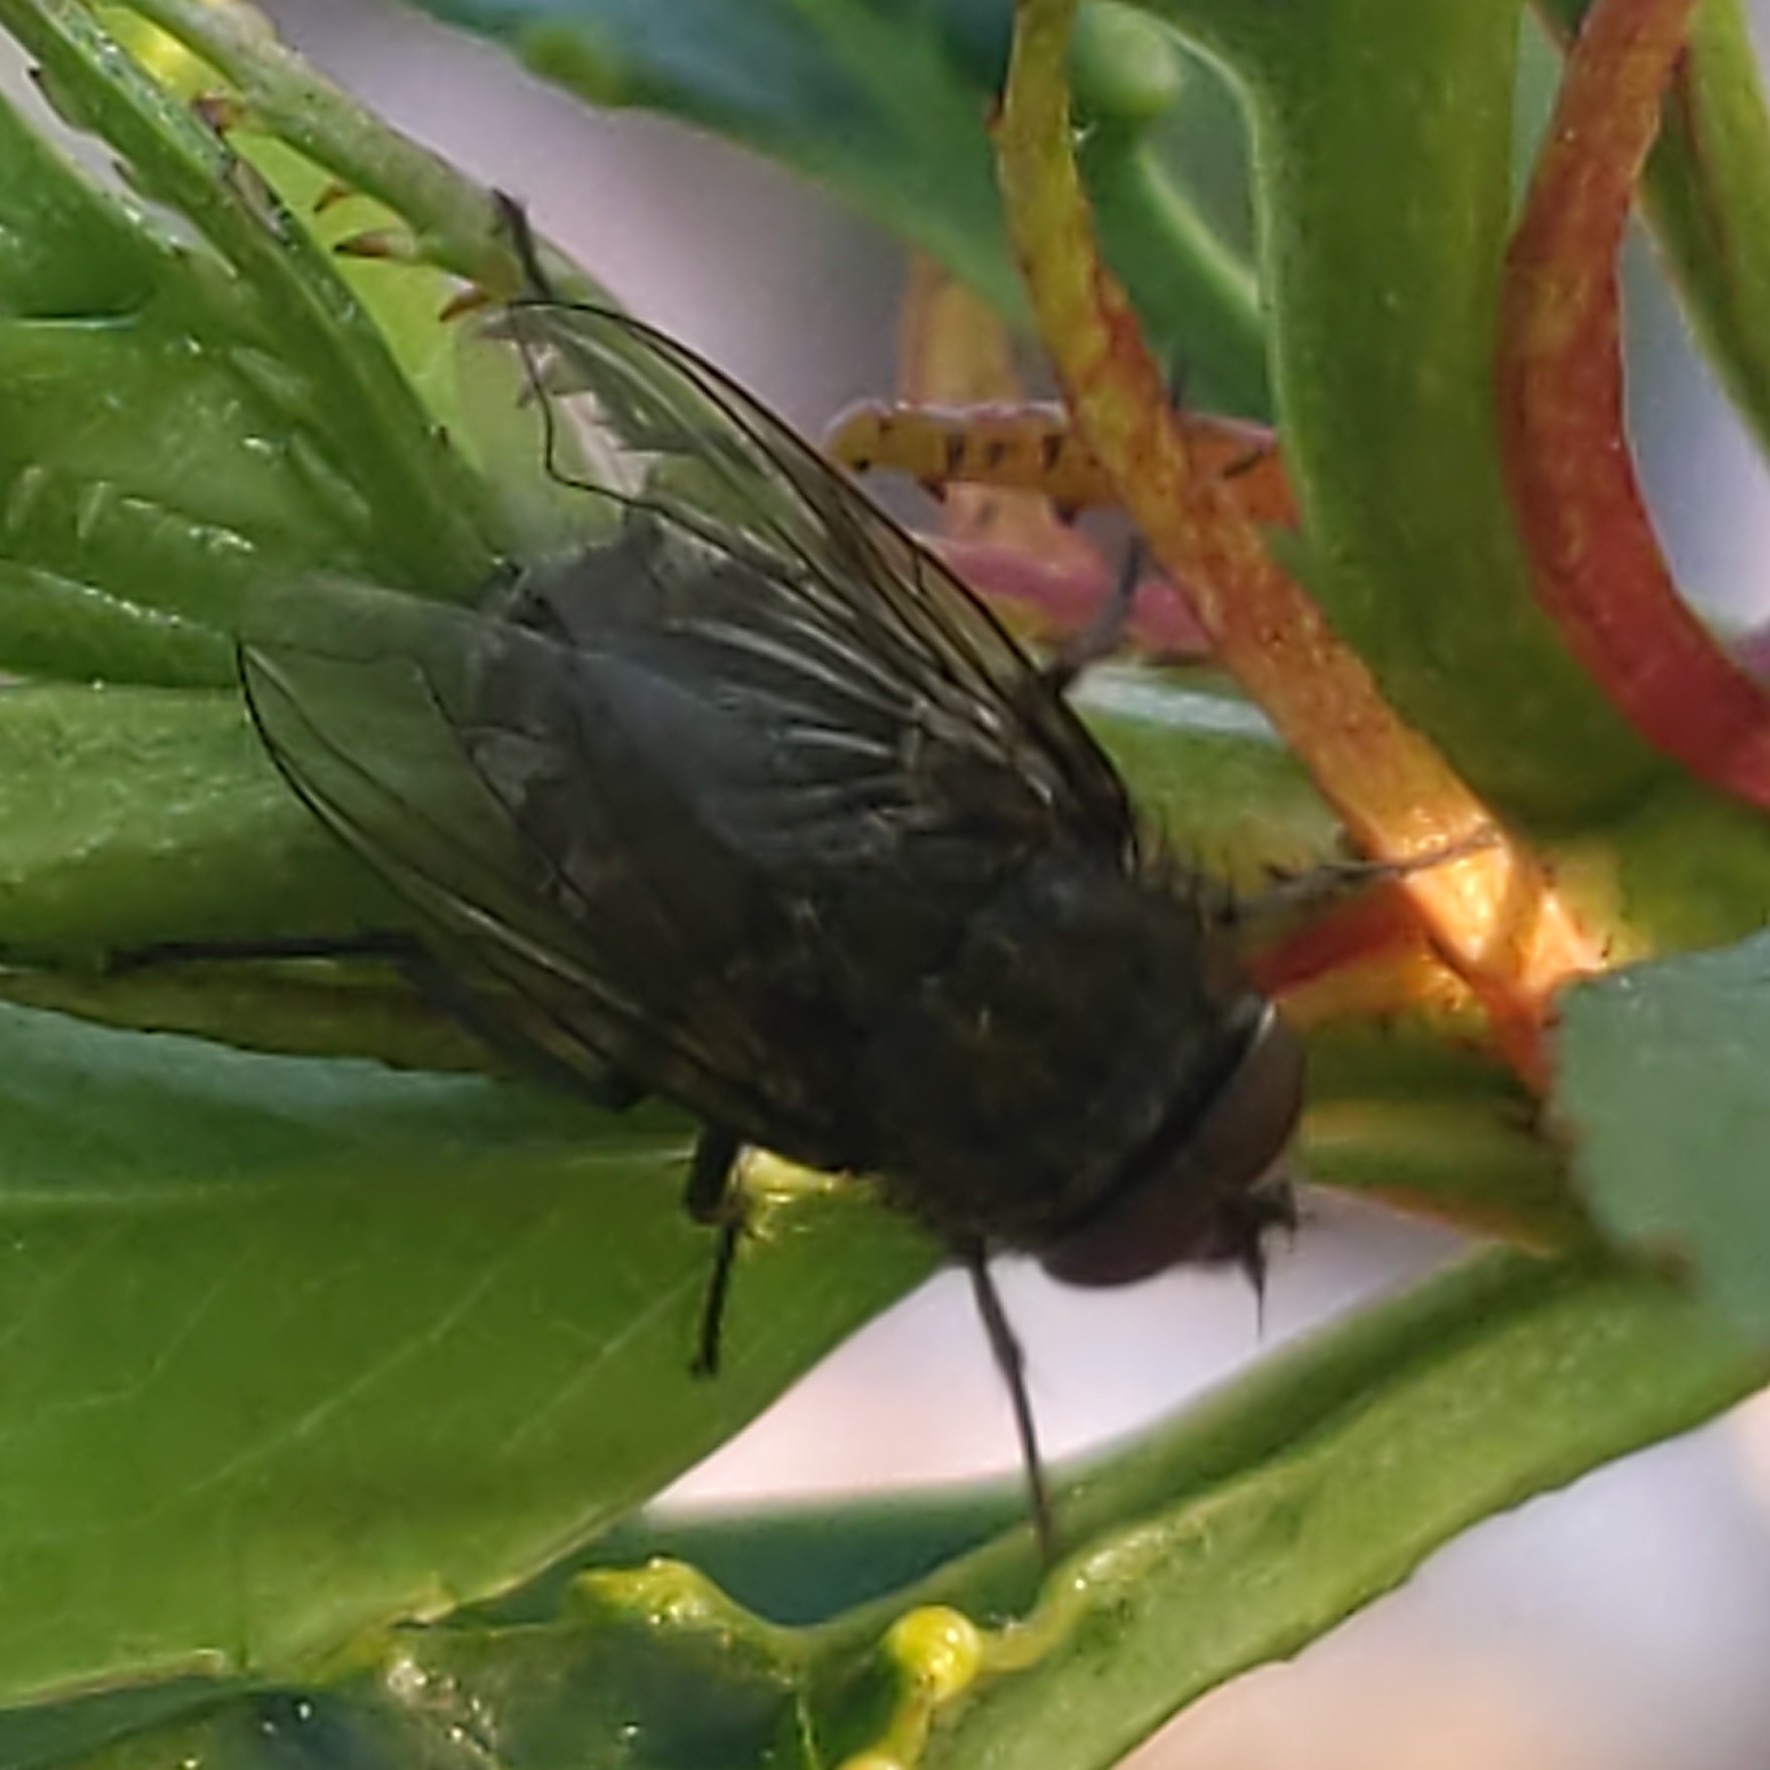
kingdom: Animalia
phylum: Arthropoda
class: Insecta
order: Diptera
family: Polleniidae
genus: Pollenia
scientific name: Pollenia
